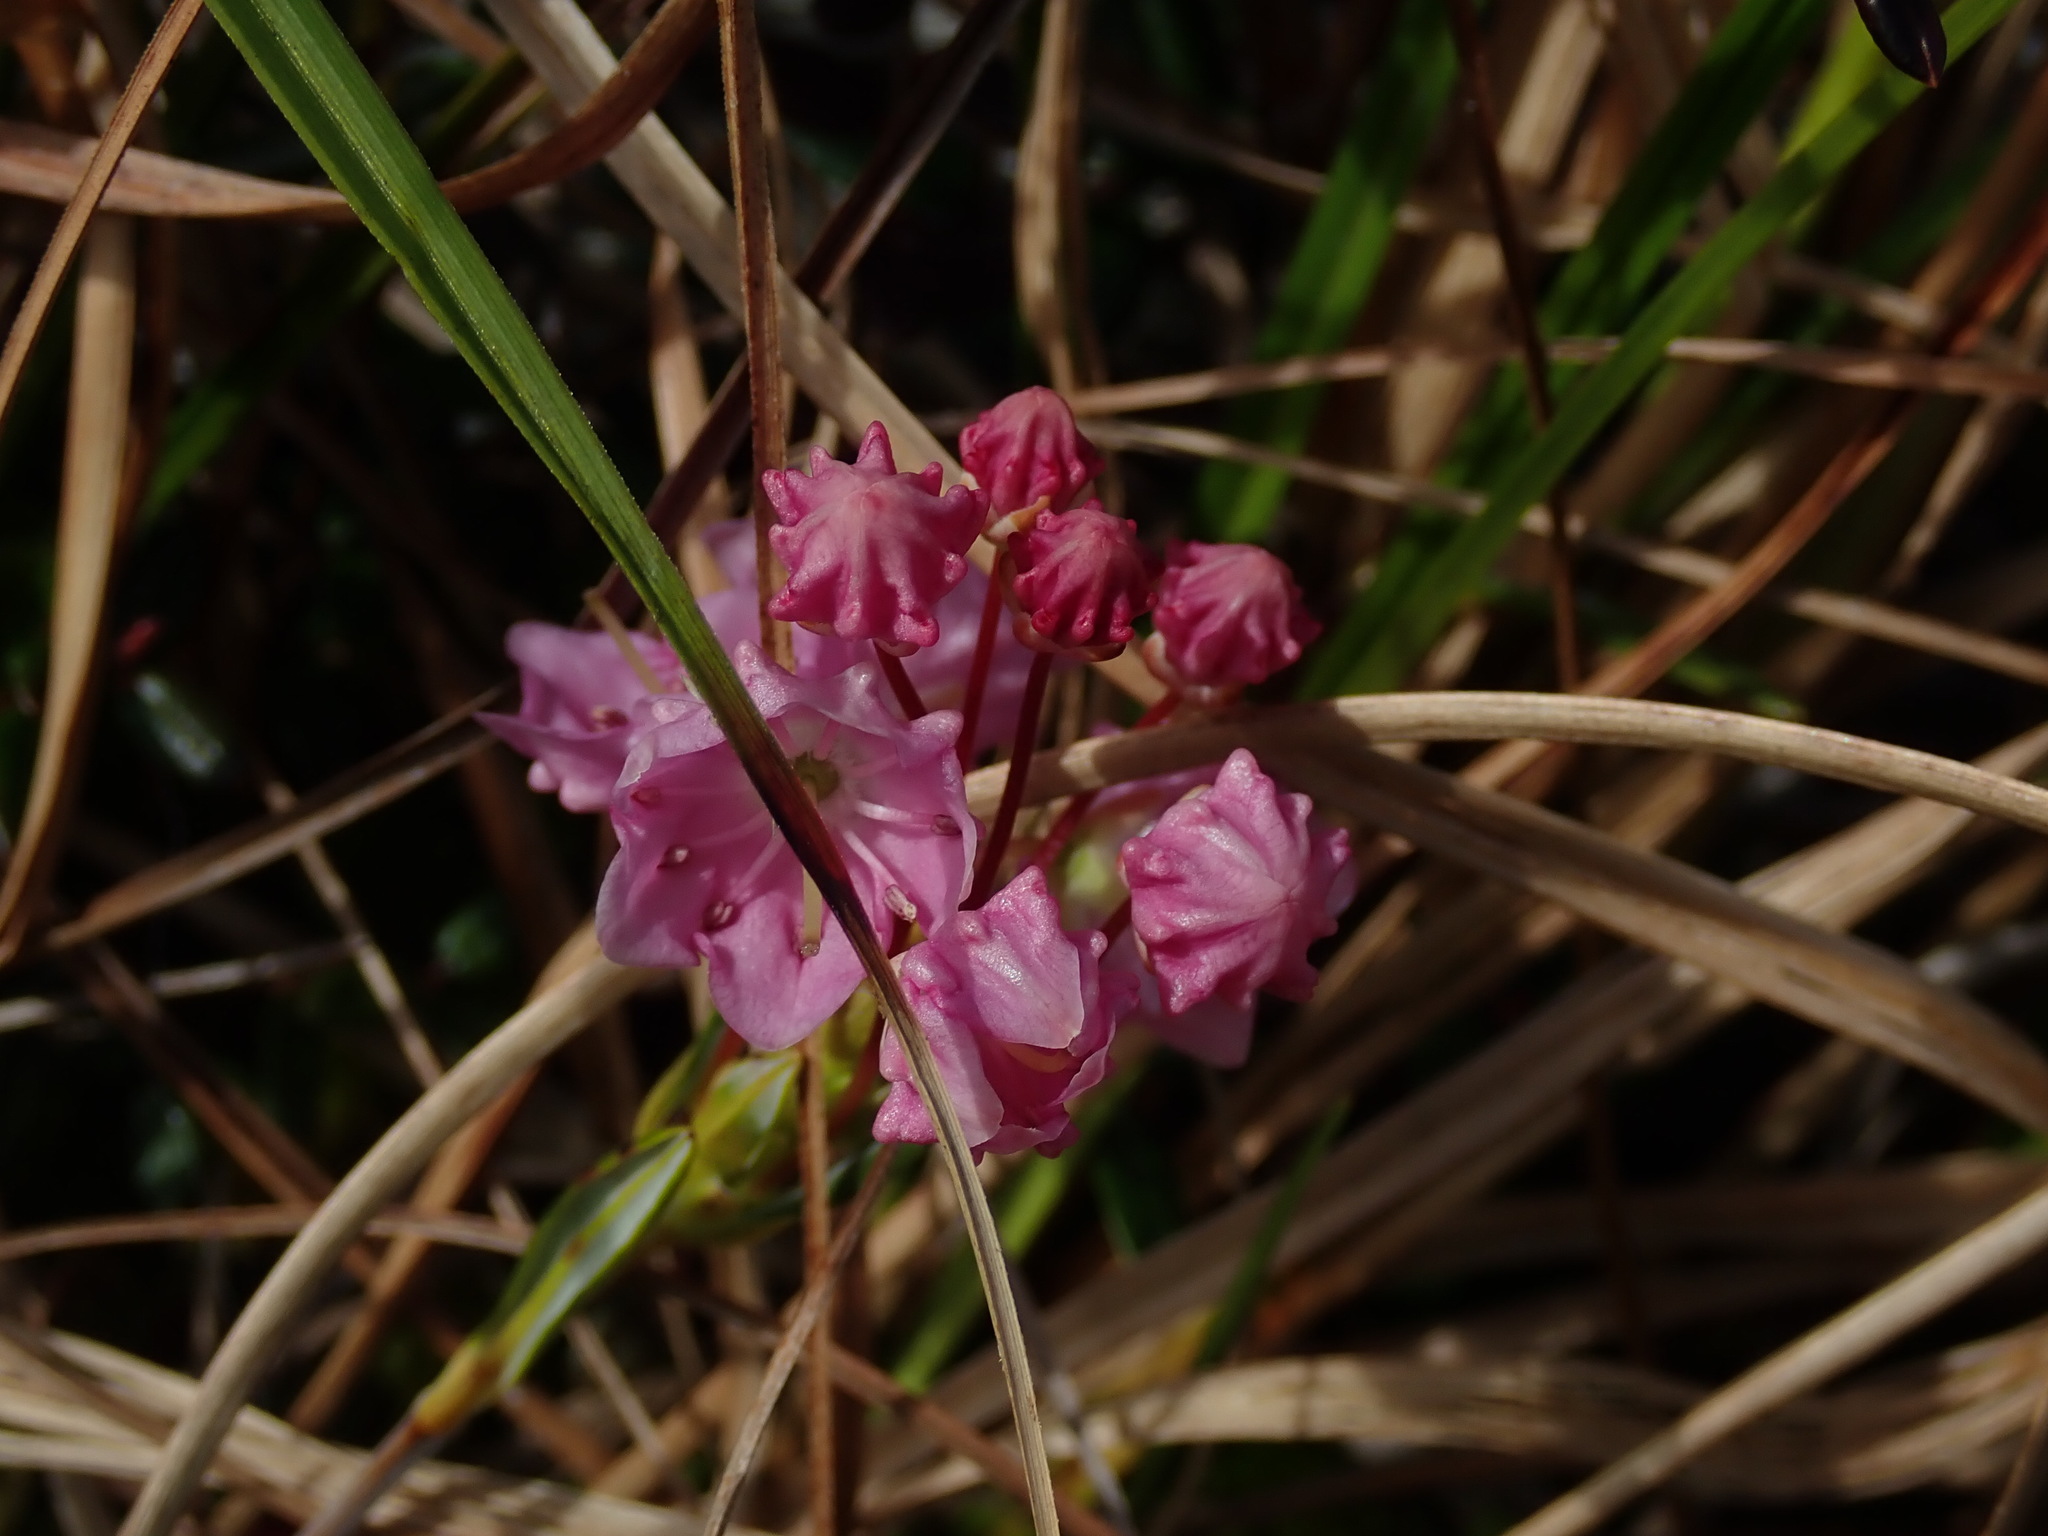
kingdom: Plantae
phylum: Tracheophyta
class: Magnoliopsida
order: Ericales
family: Ericaceae
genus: Kalmia
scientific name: Kalmia microphylla
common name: Alpine bog laurel
